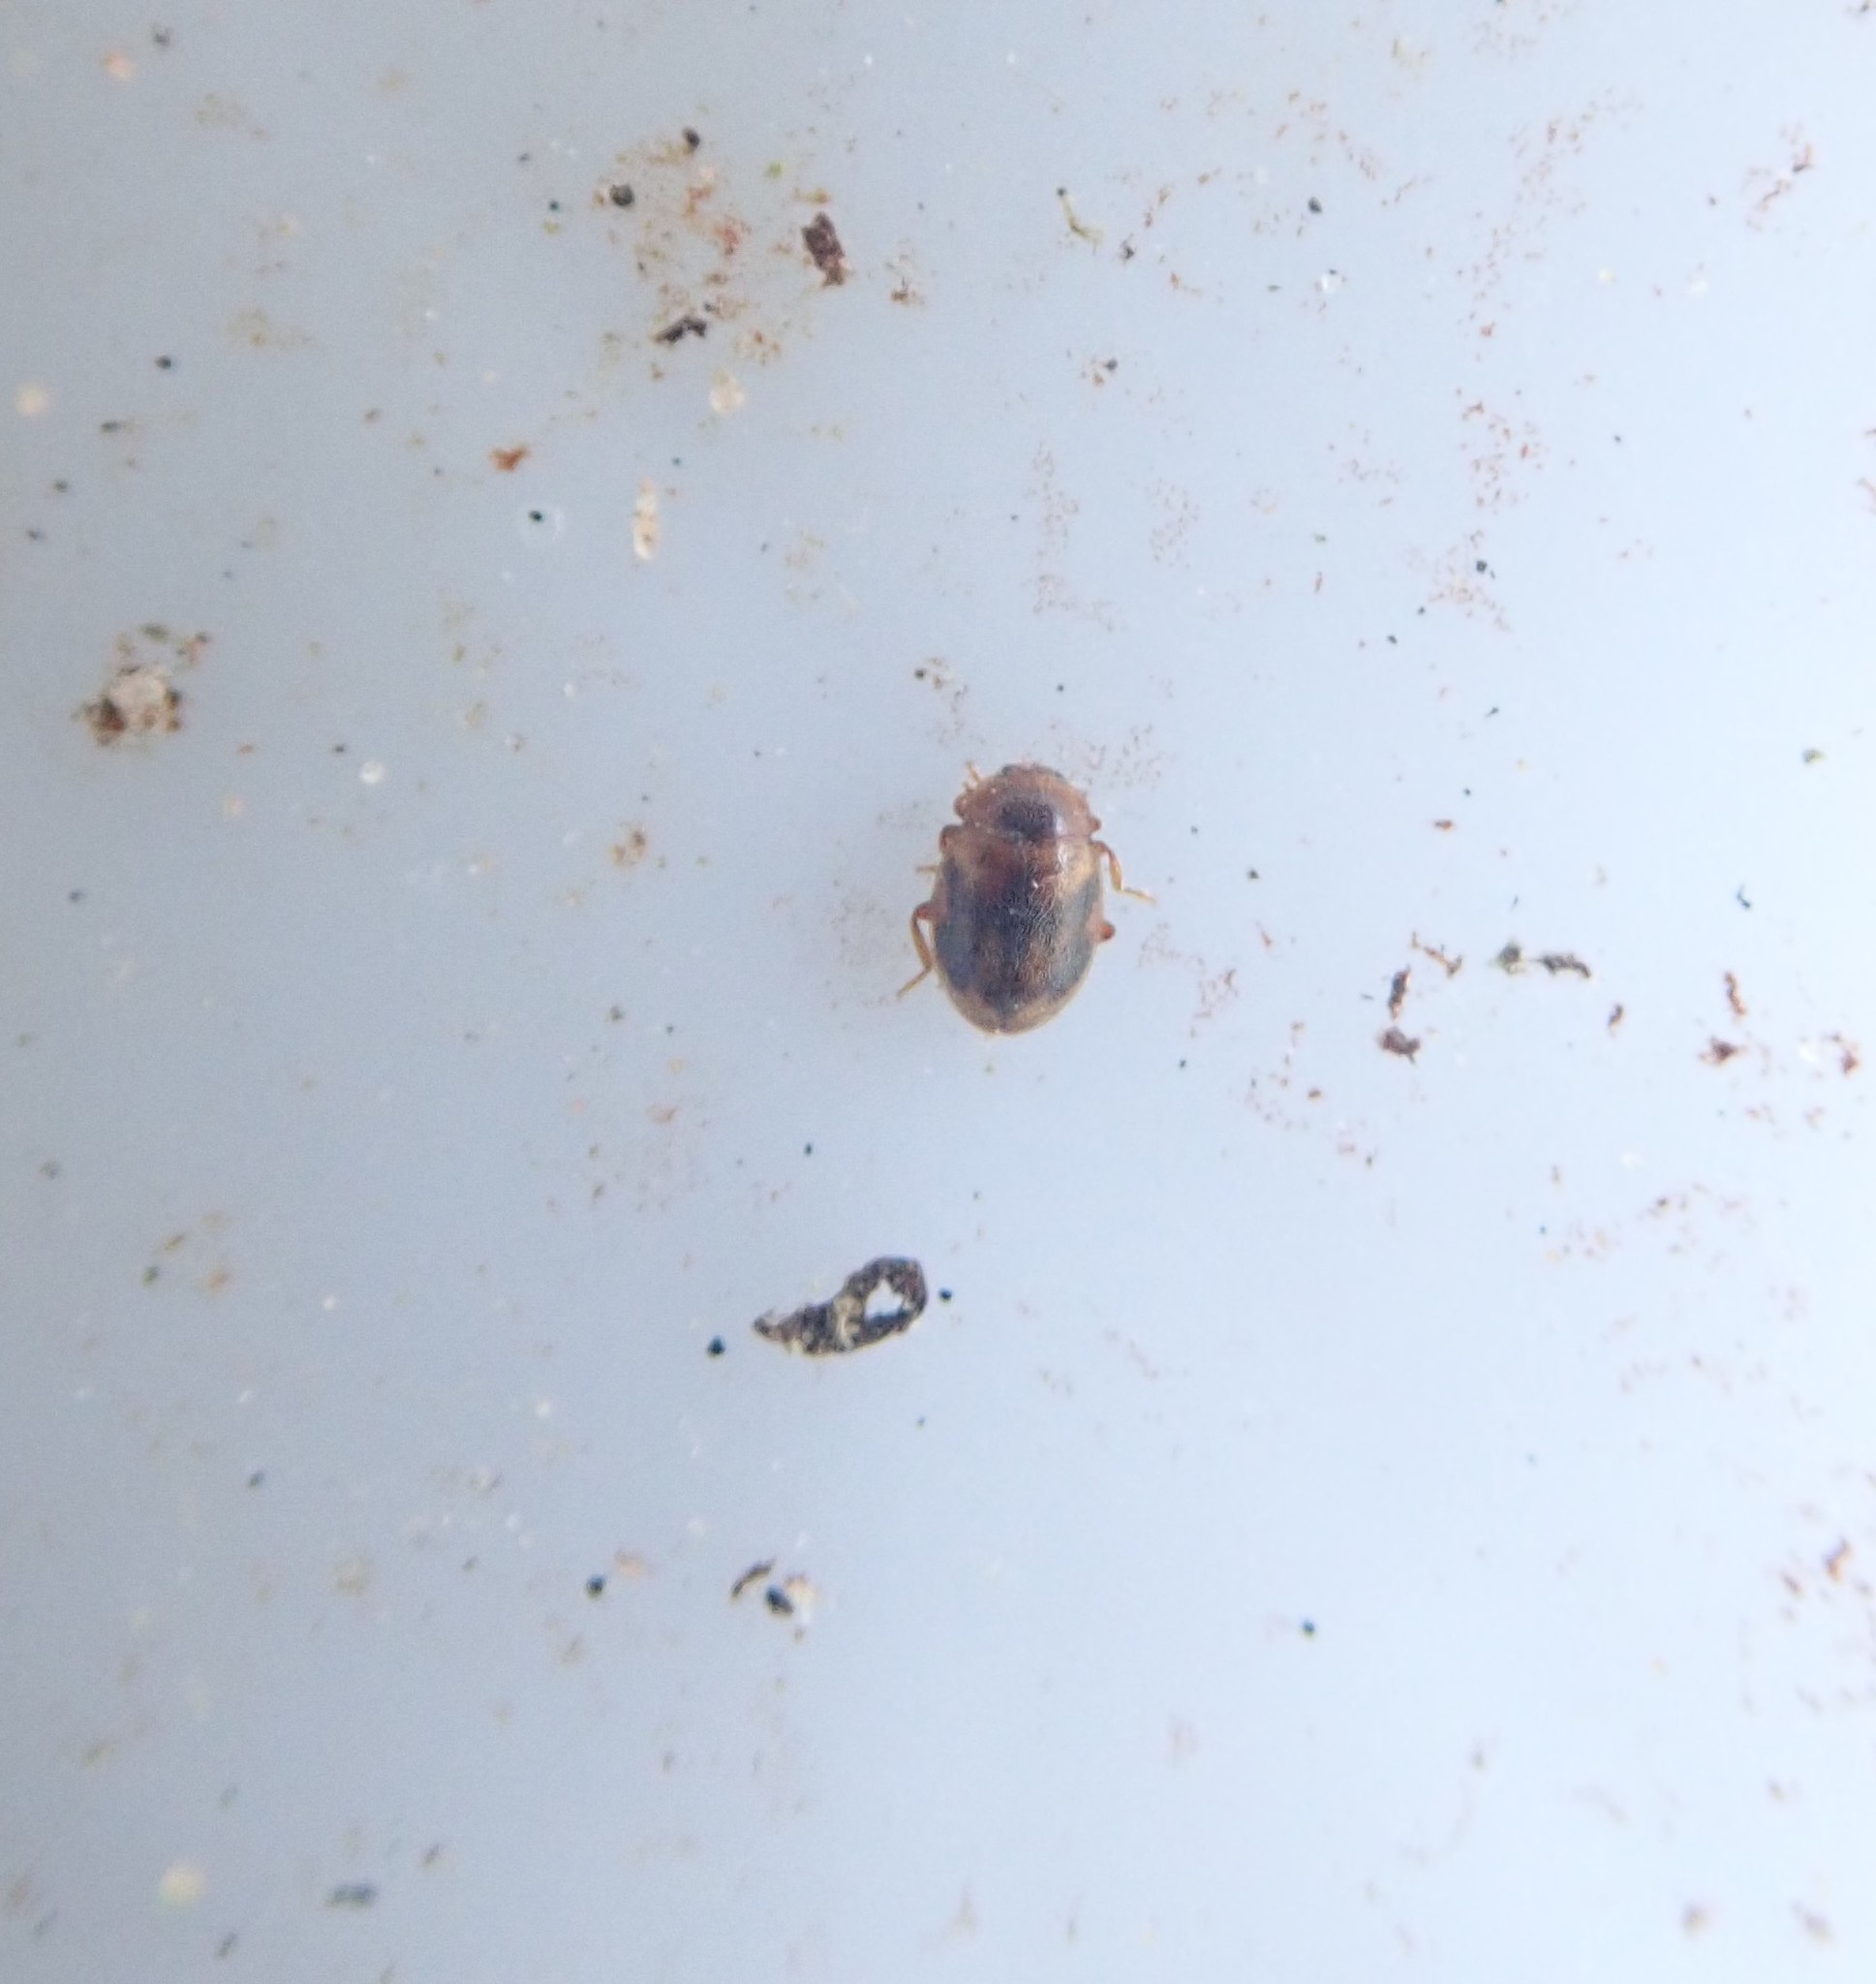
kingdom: Animalia
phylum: Arthropoda
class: Insecta
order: Coleoptera
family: Coccinellidae
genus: Rhyzobius
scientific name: Rhyzobius chrysomeloides
